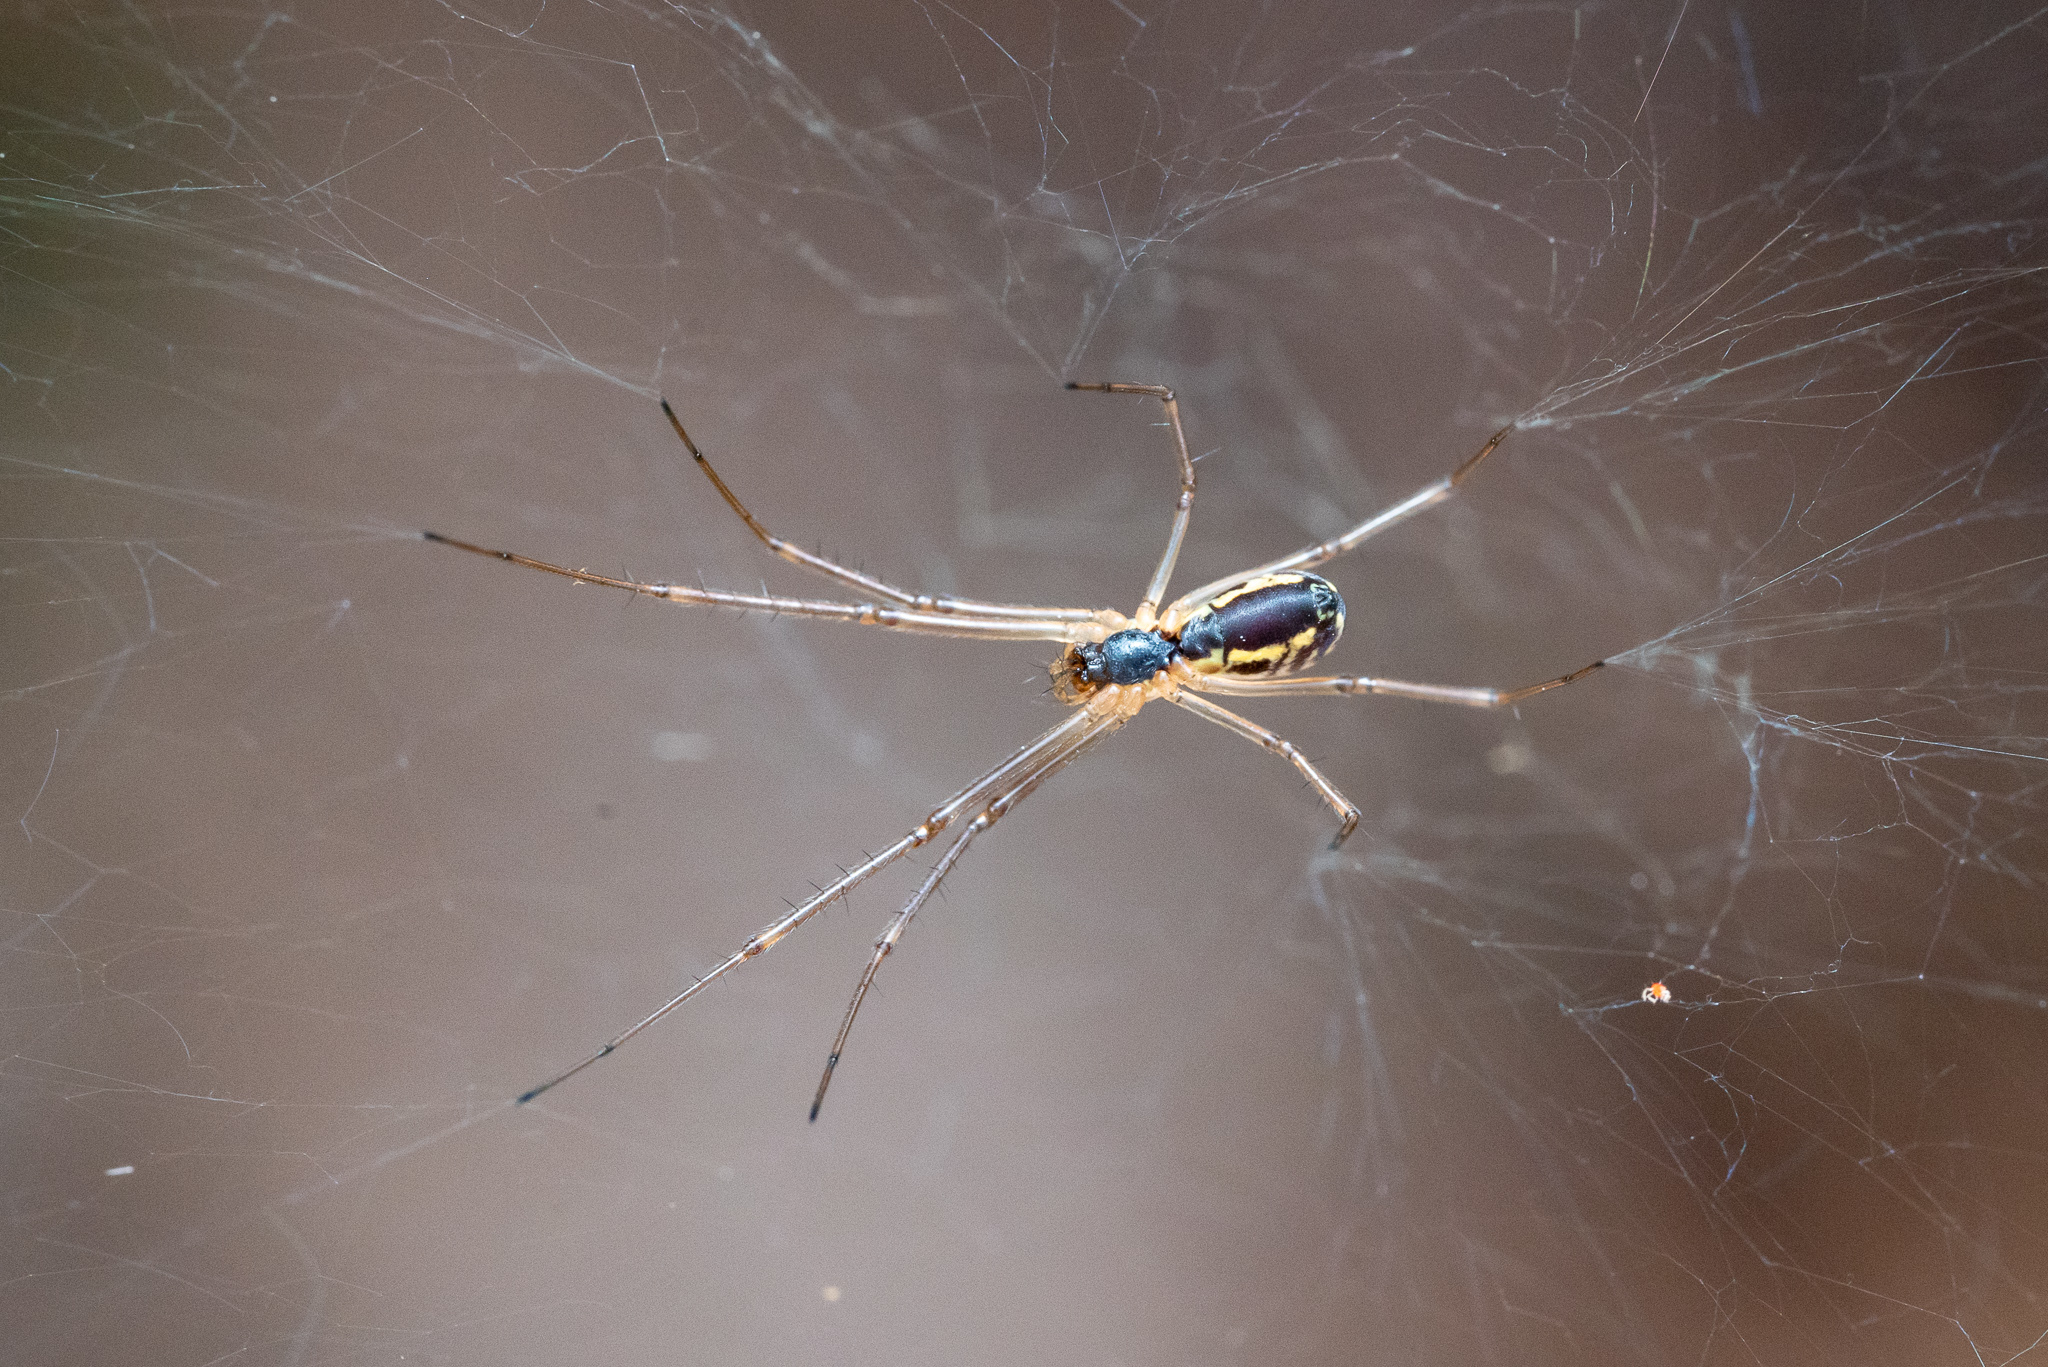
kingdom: Animalia
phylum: Arthropoda
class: Arachnida
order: Araneae
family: Linyphiidae
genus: Neriene
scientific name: Neriene radiata
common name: Filmy dome spider
